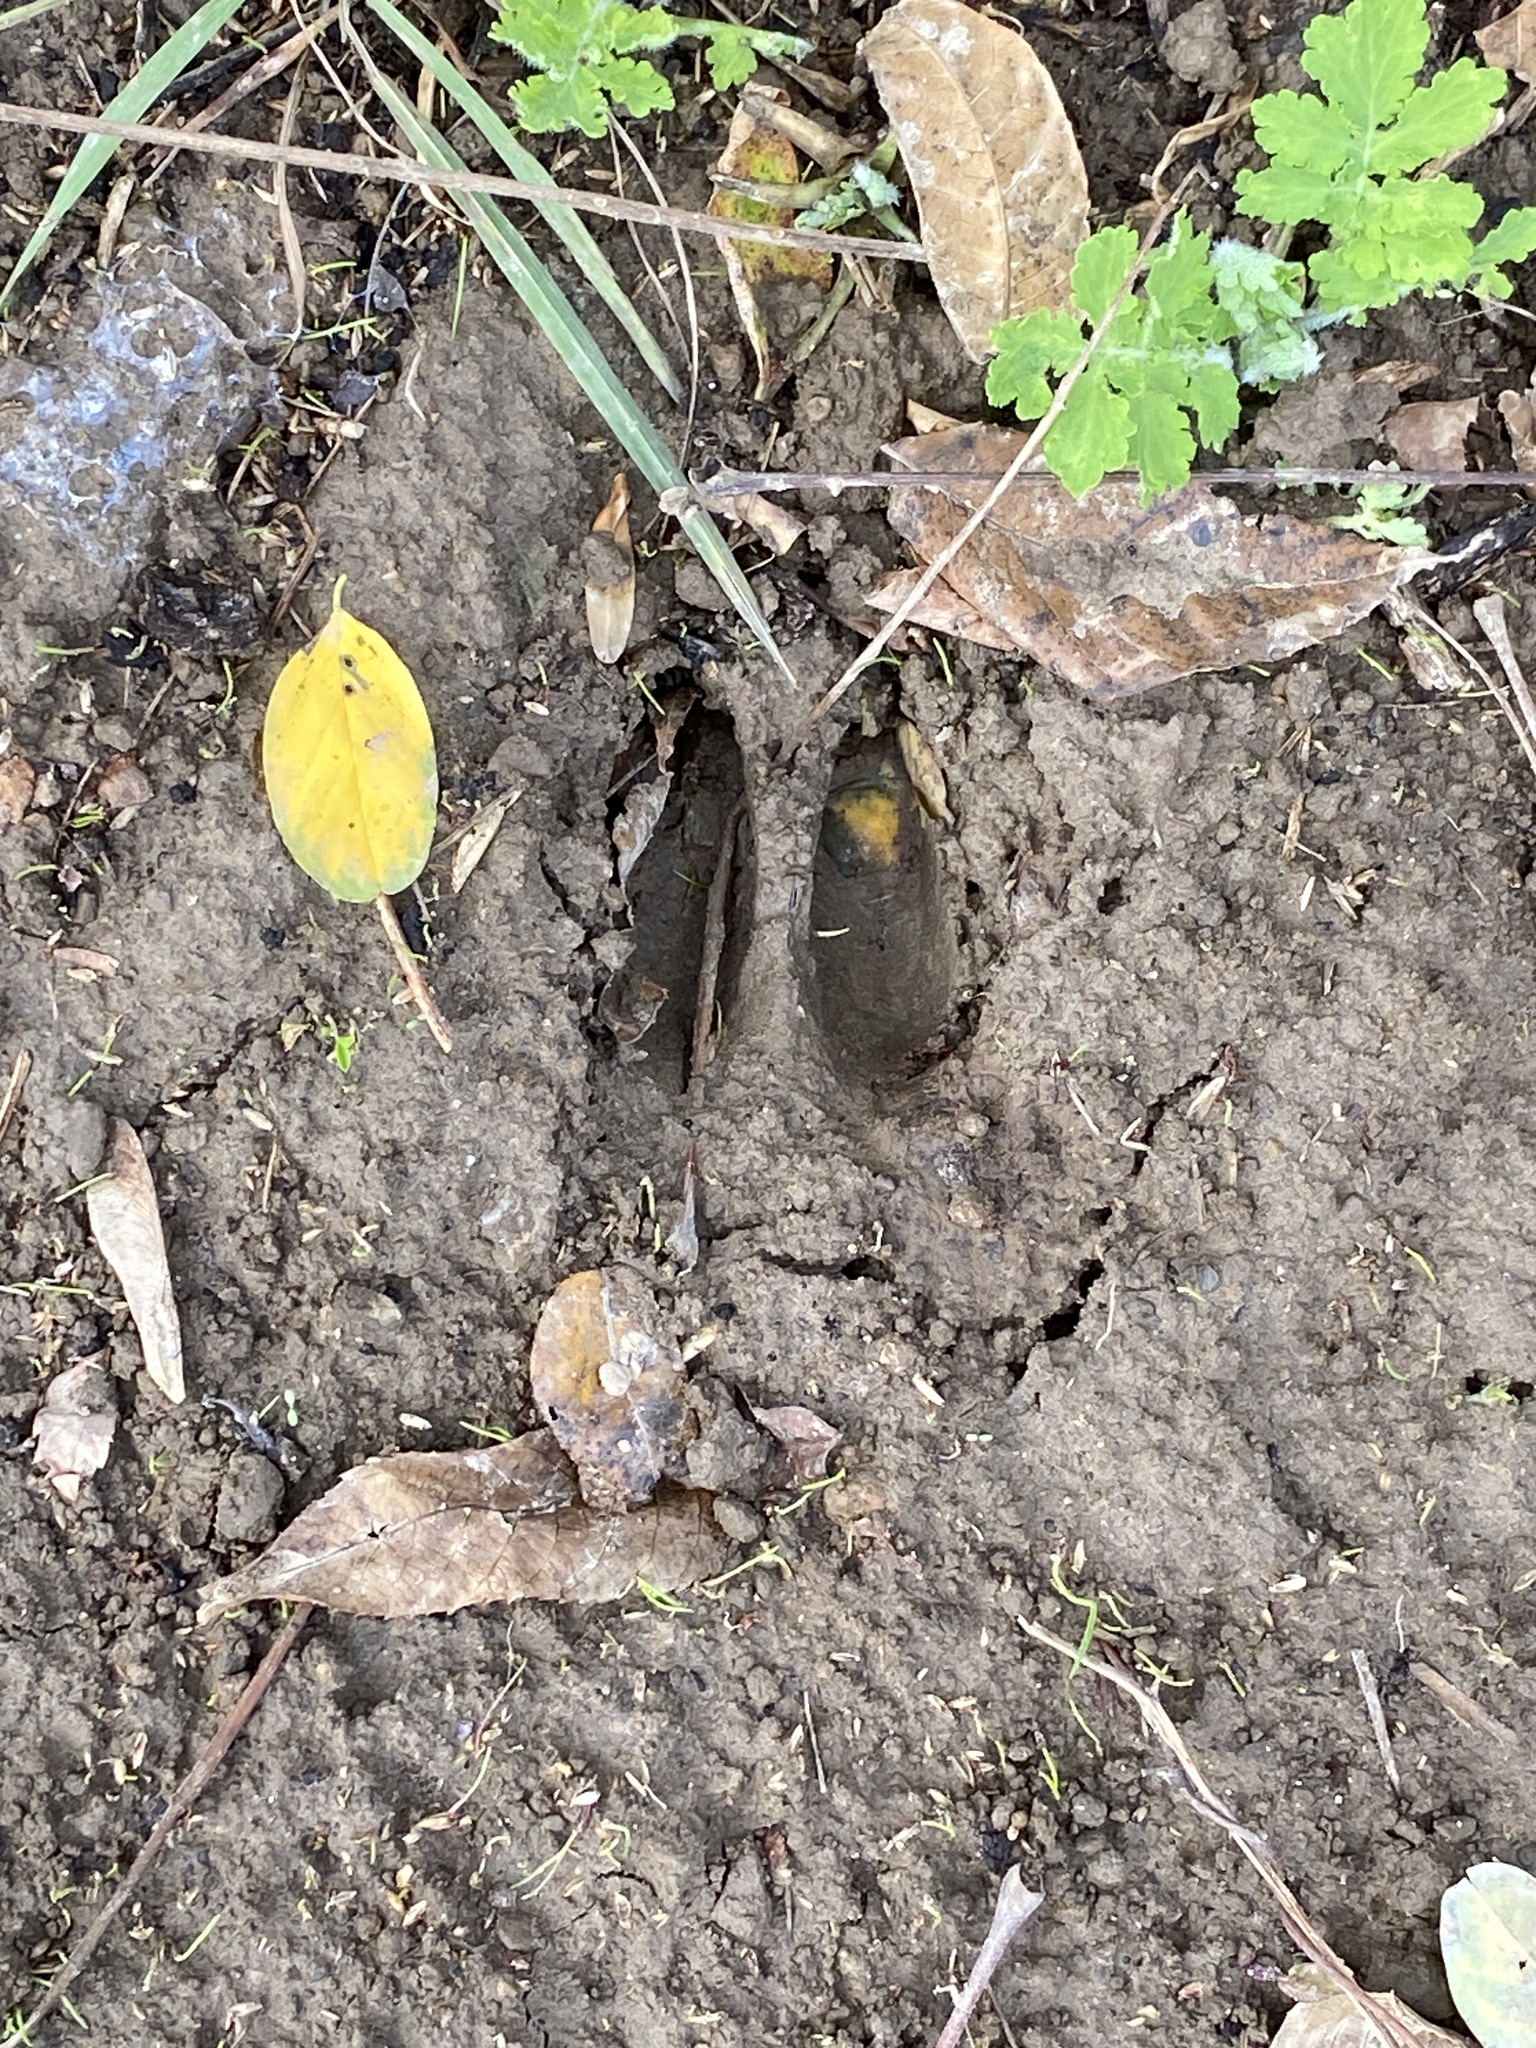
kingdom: Animalia
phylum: Chordata
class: Mammalia
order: Artiodactyla
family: Cervidae
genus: Odocoileus
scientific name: Odocoileus virginianus
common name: White-tailed deer
